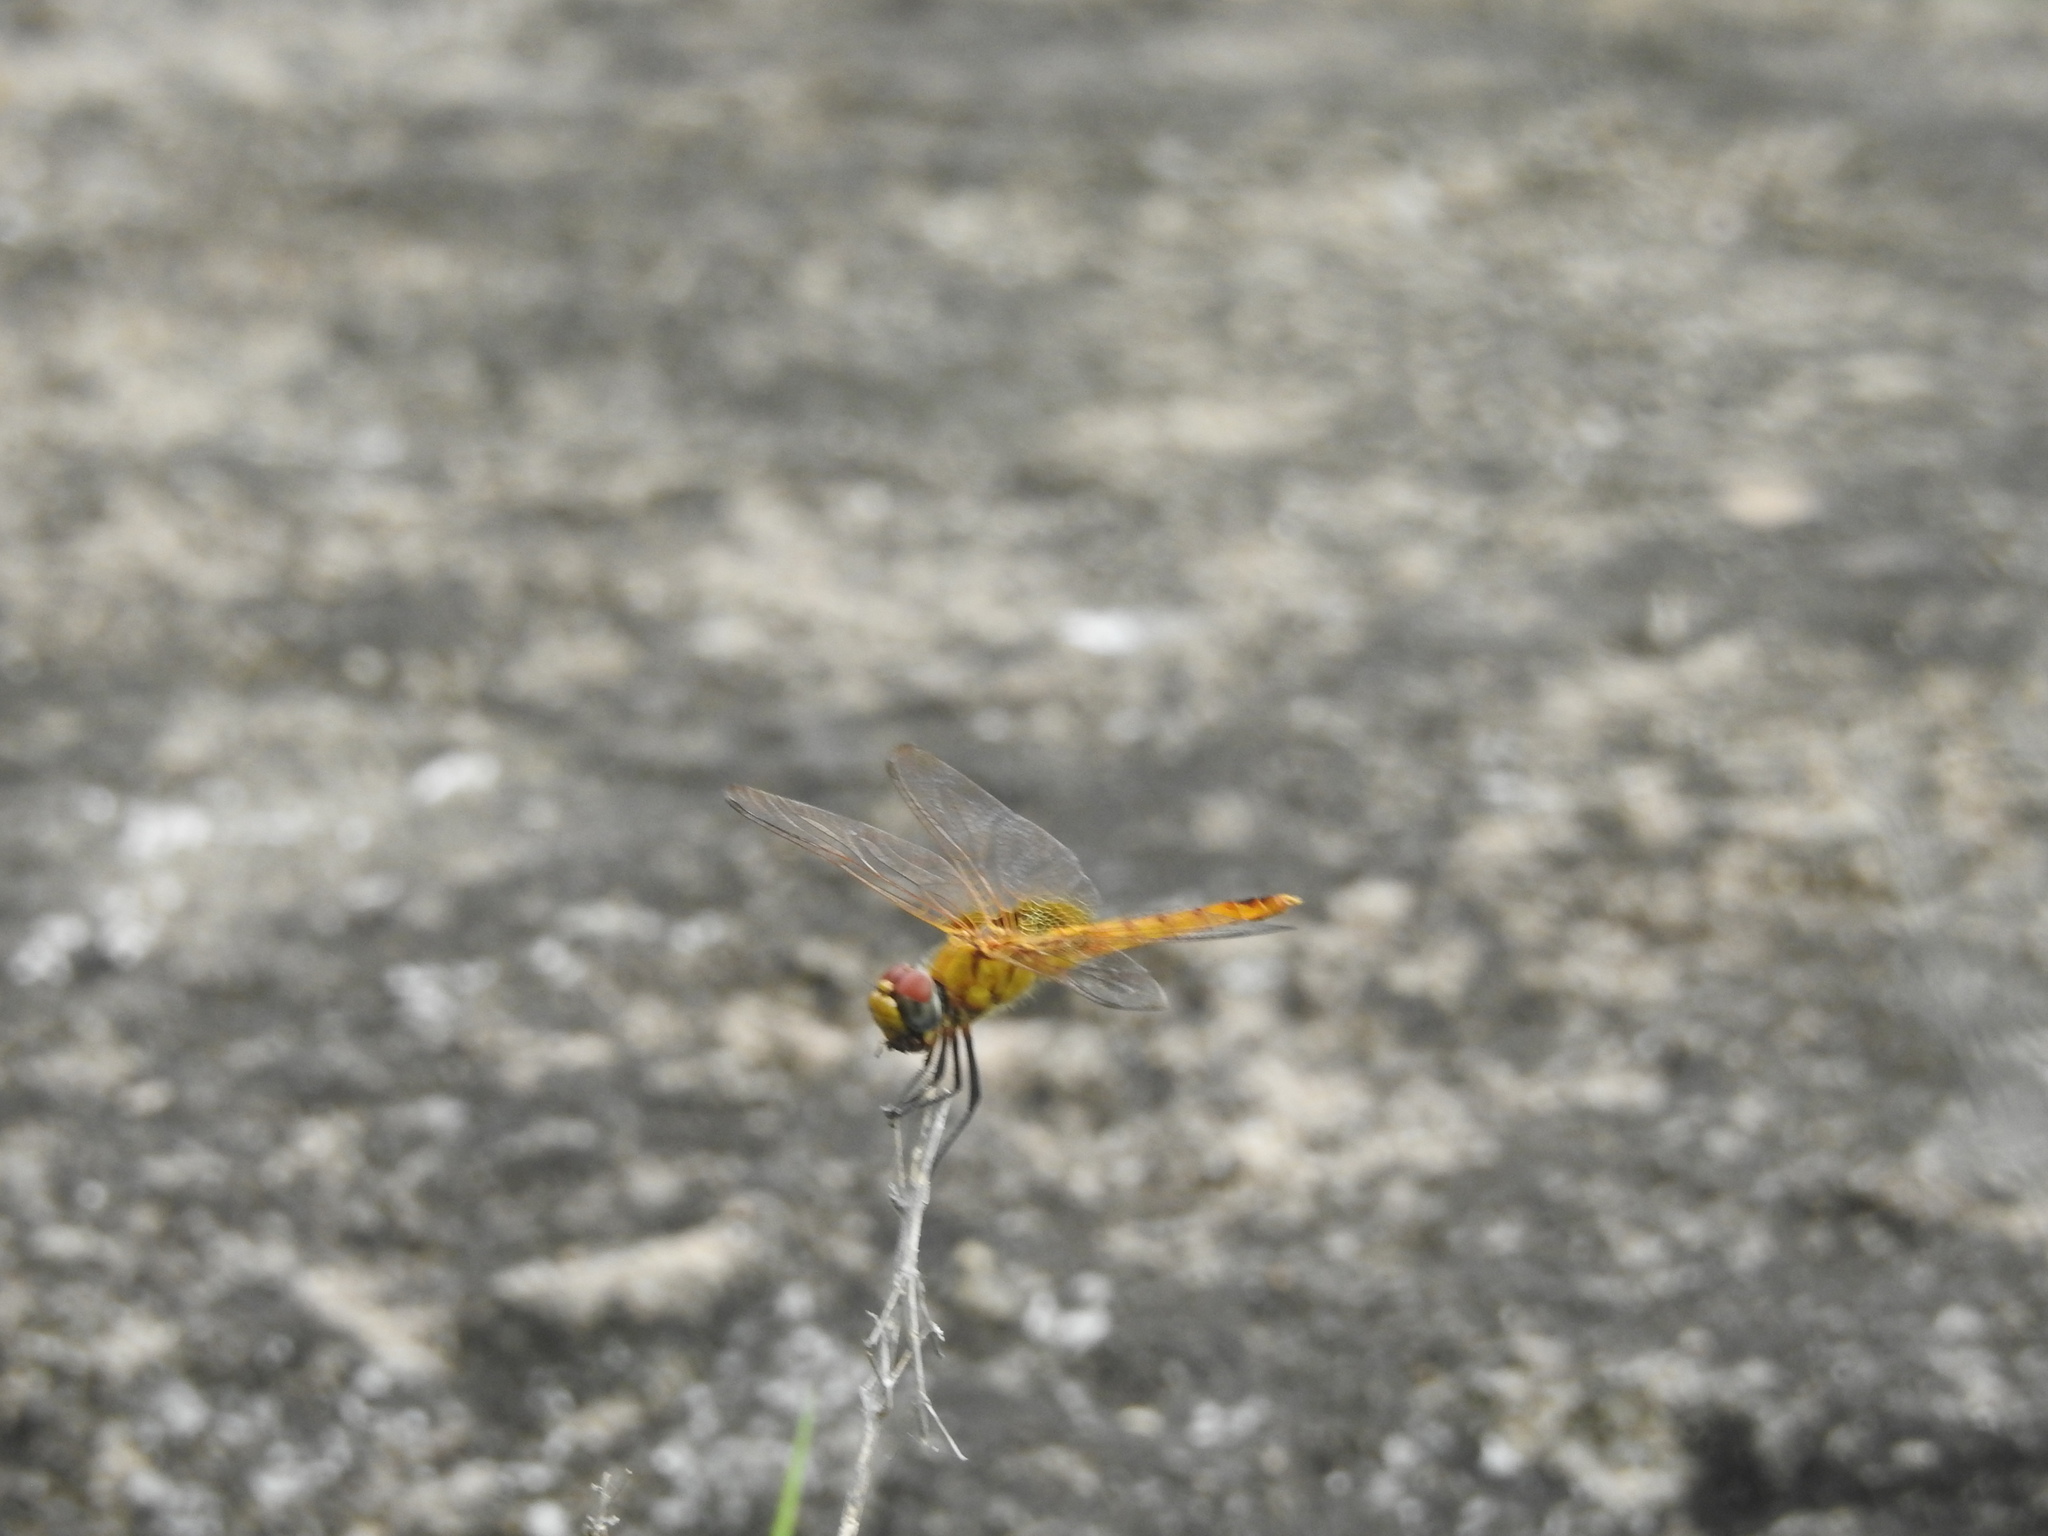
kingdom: Animalia
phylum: Arthropoda
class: Insecta
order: Odonata
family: Libellulidae
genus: Urothemis
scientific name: Urothemis signata
